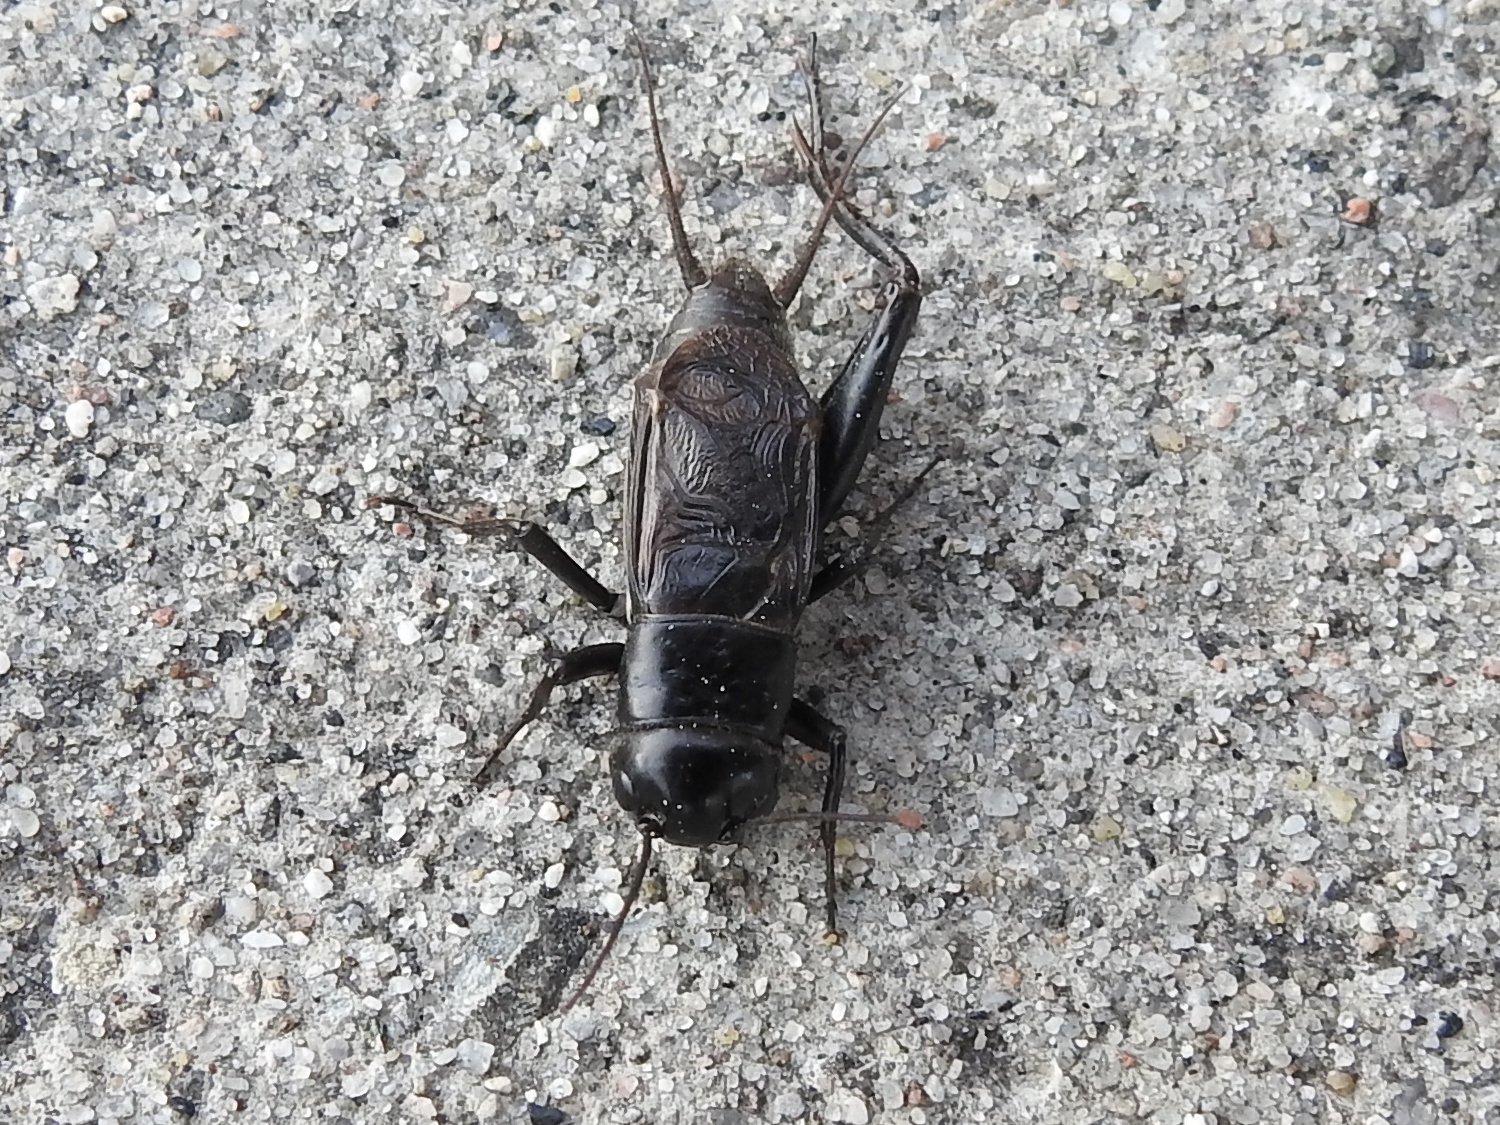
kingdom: Animalia
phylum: Arthropoda
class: Insecta
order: Orthoptera
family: Gryllidae
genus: Gryllus
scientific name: Gryllus pennsylvanicus
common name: Fall field cricket
